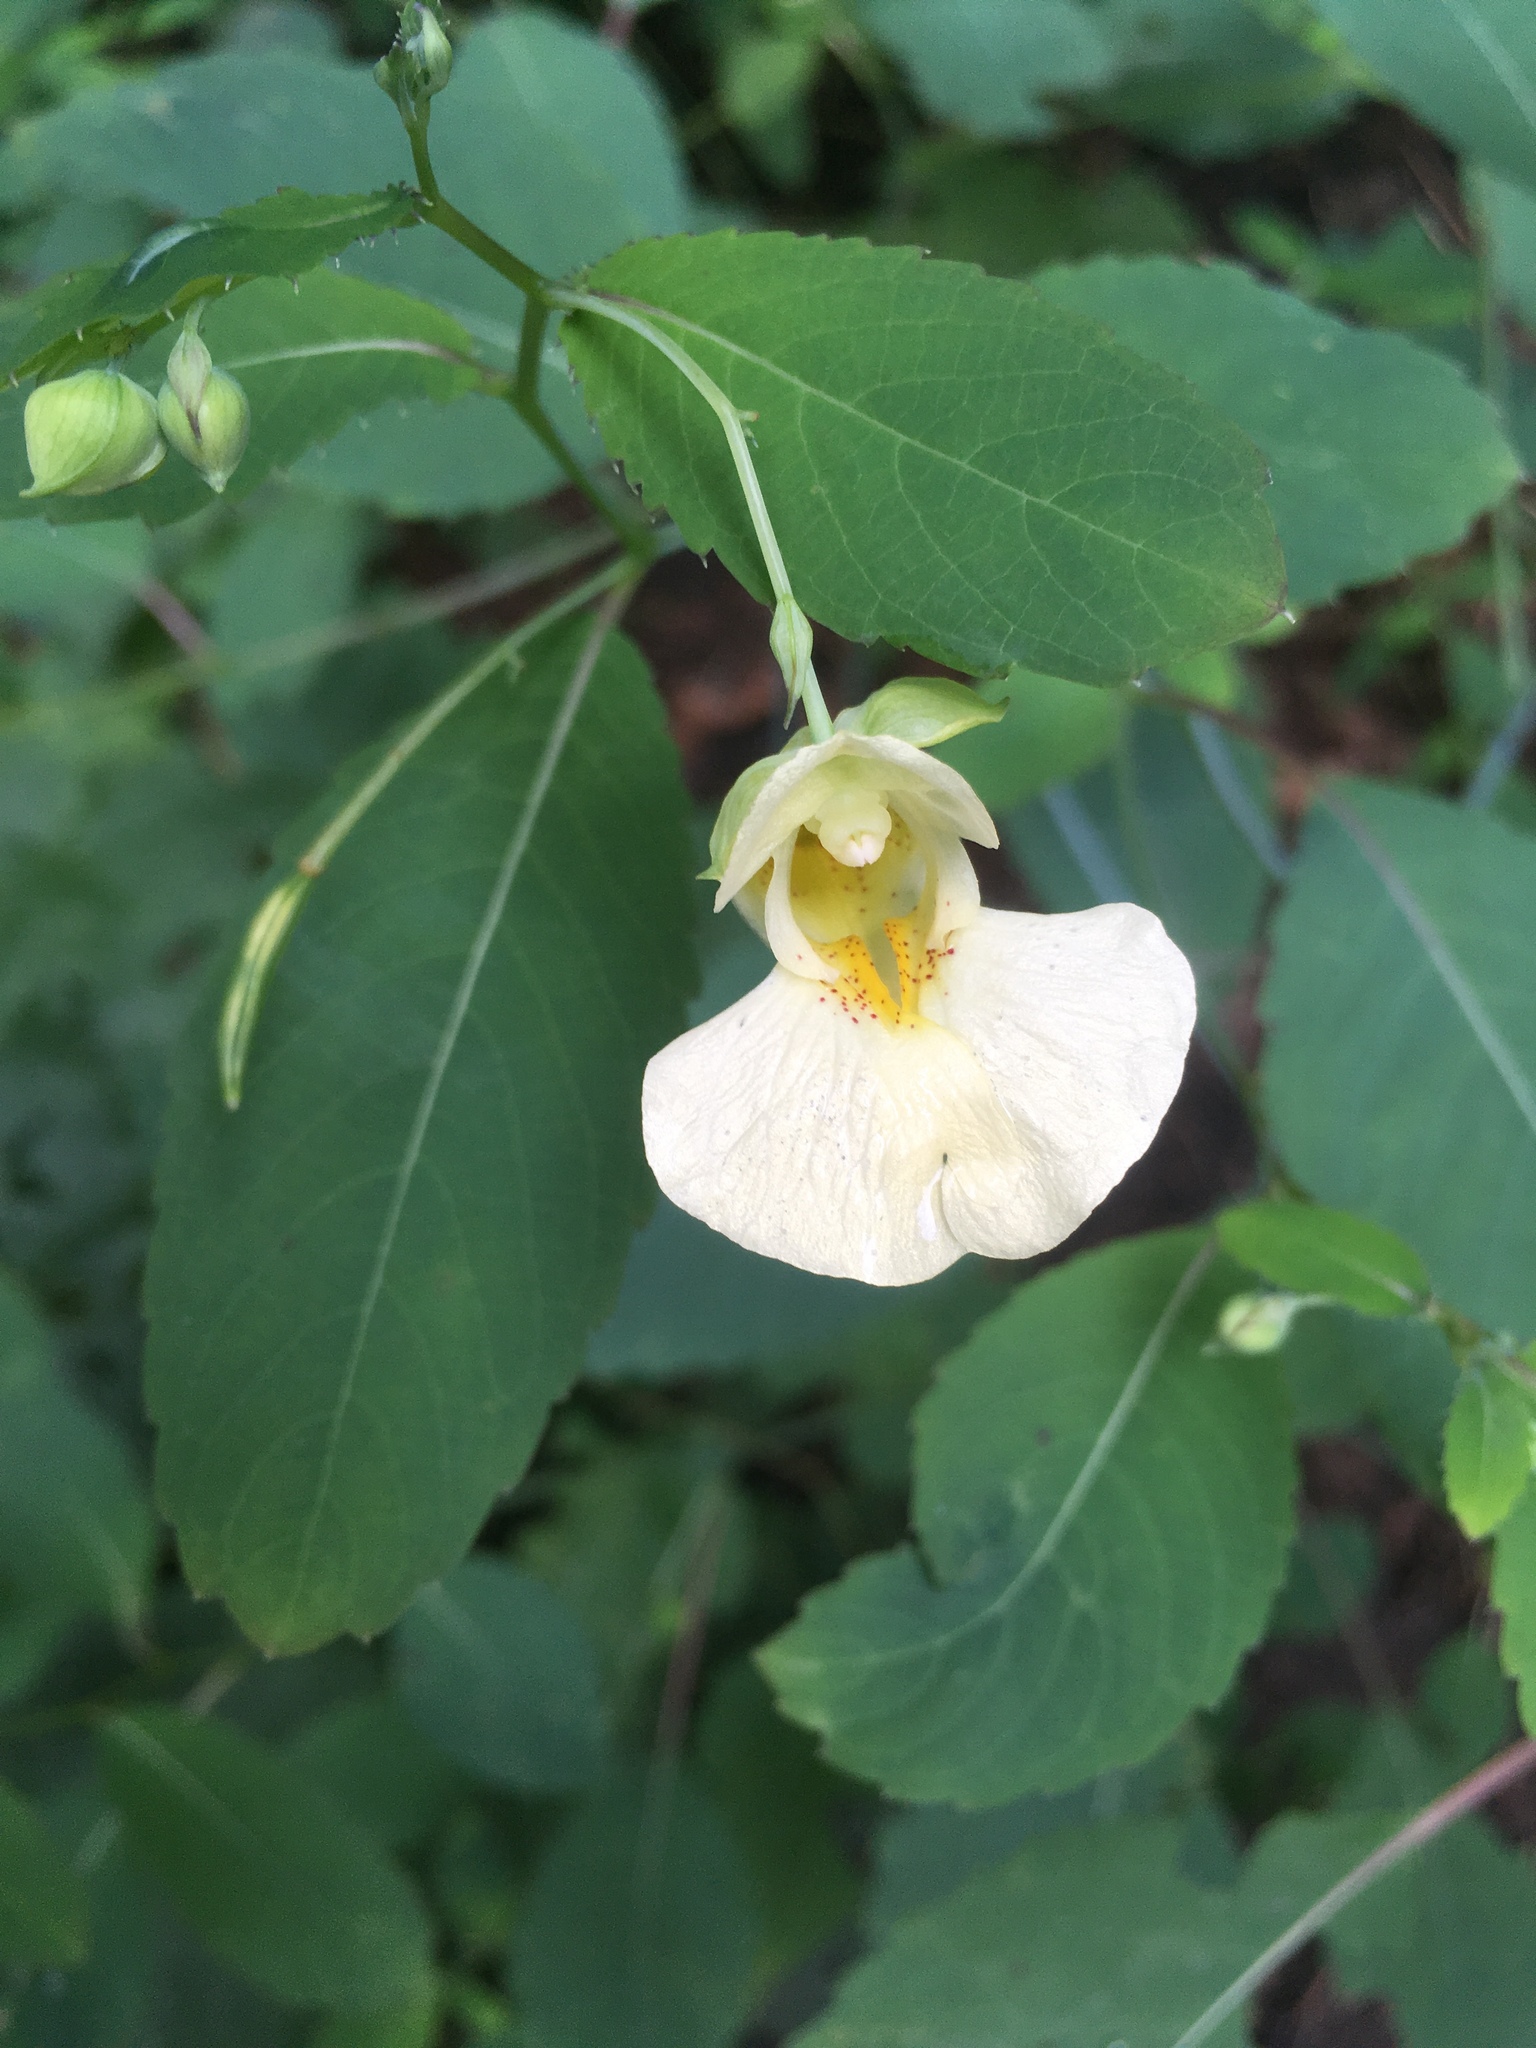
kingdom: Plantae
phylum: Tracheophyta
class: Magnoliopsida
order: Ericales
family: Balsaminaceae
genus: Impatiens
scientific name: Impatiens pallida
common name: Pale snapweed
